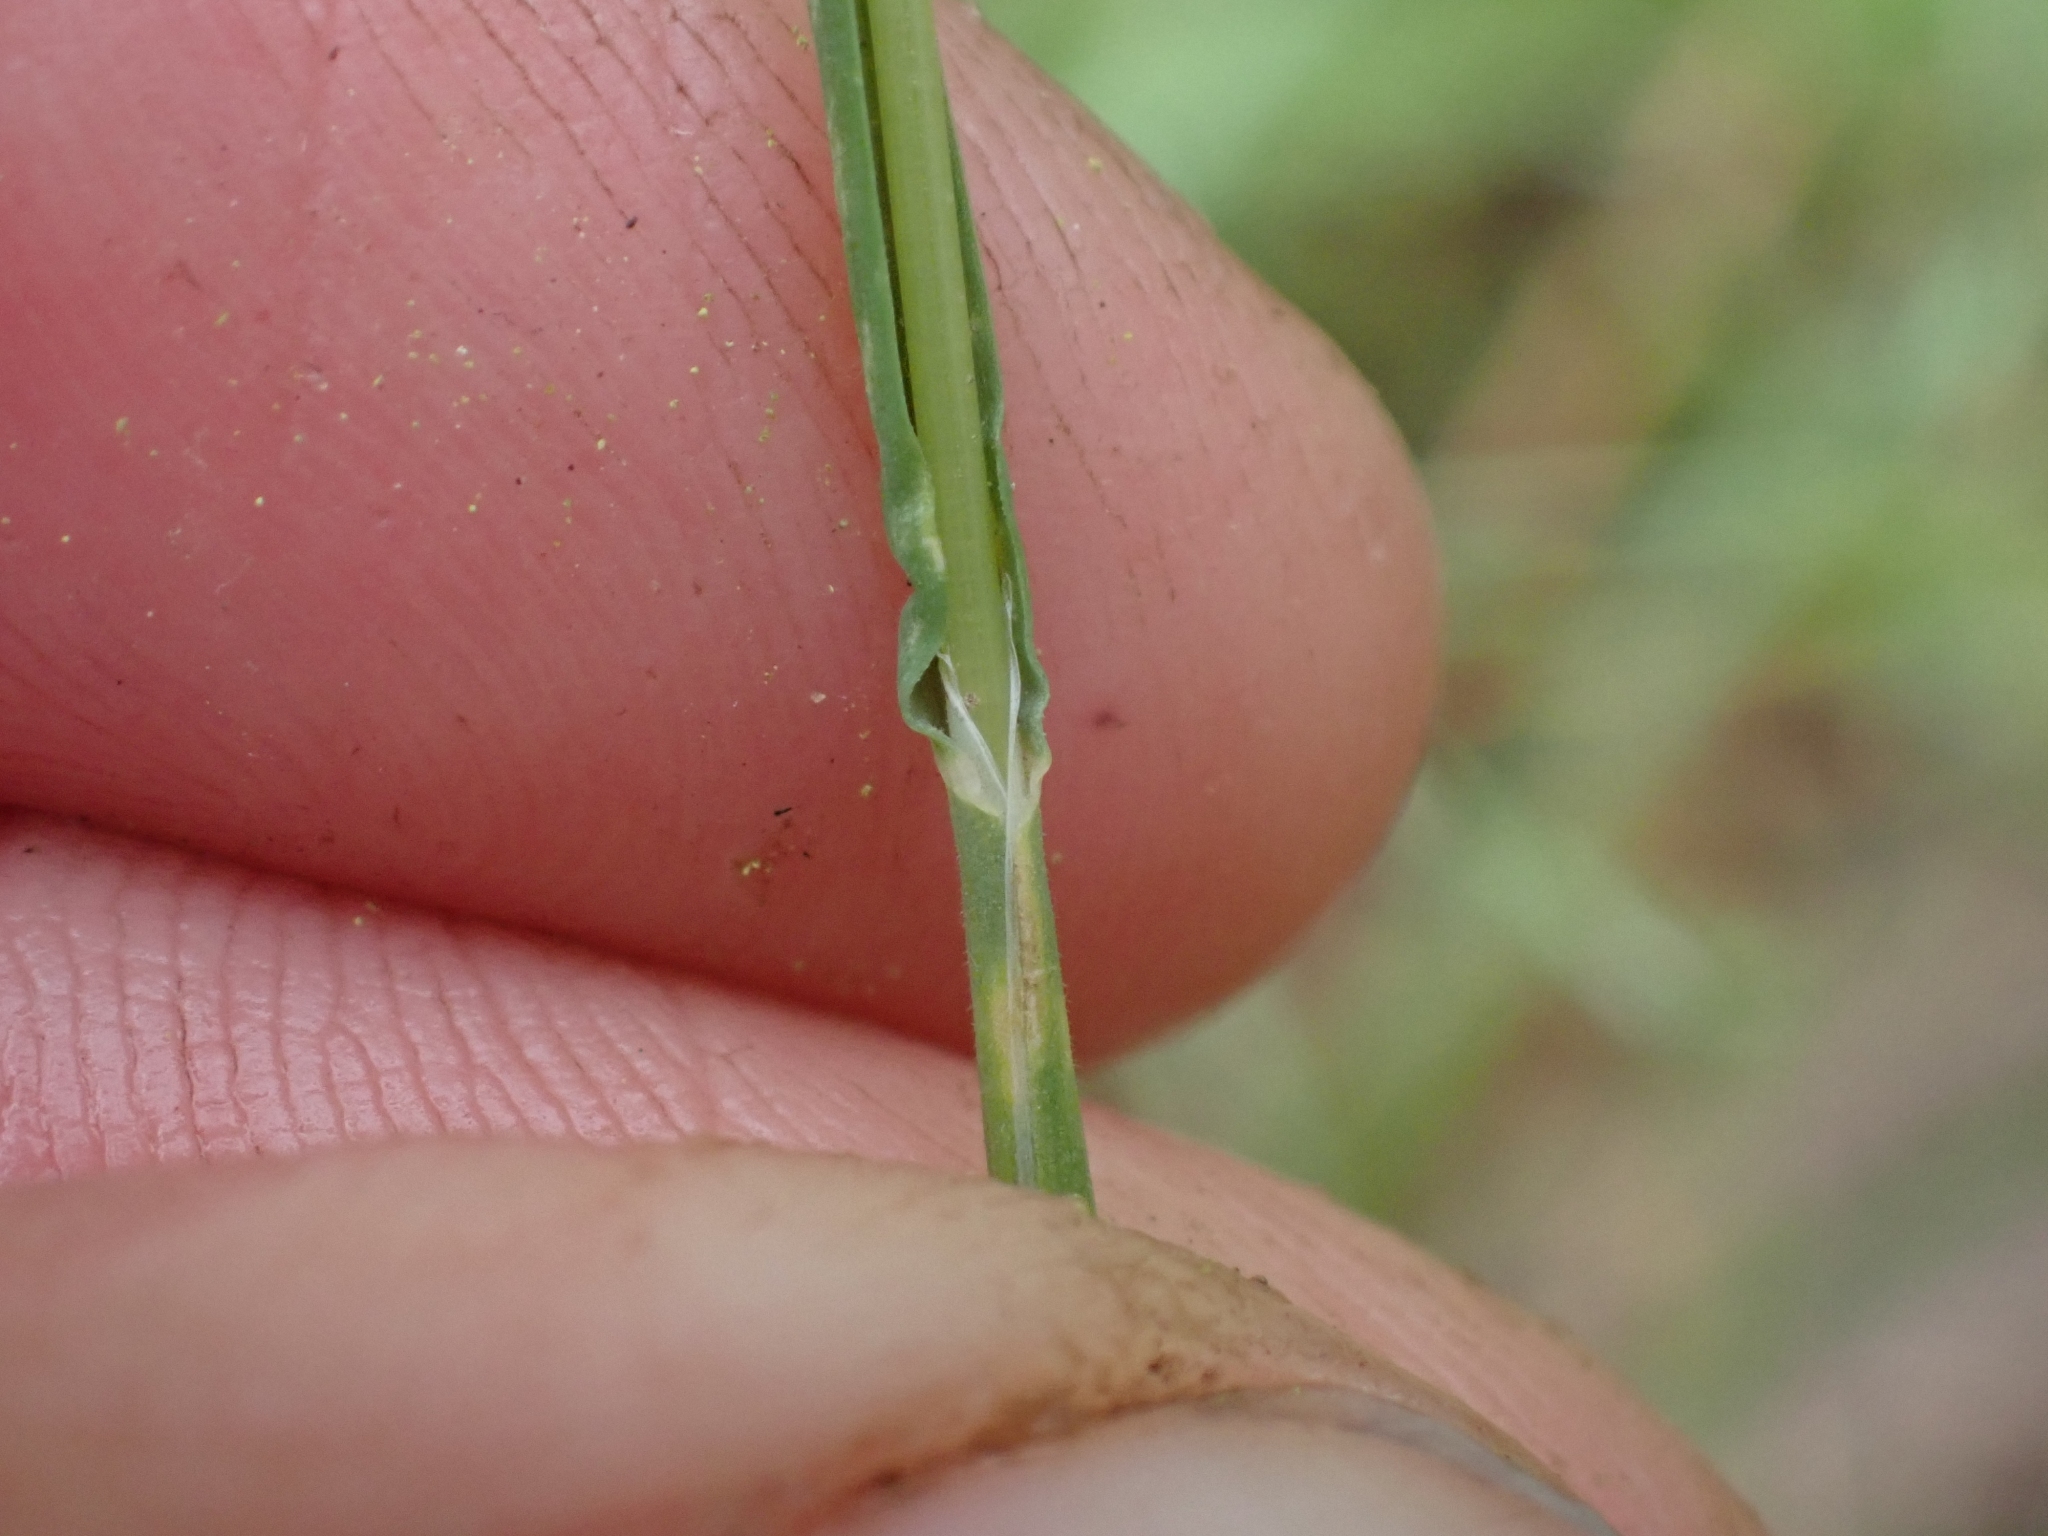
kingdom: Plantae
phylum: Tracheophyta
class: Liliopsida
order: Poales
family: Poaceae
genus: Poa
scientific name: Poa bulbosa
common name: Bulbous bluegrass
